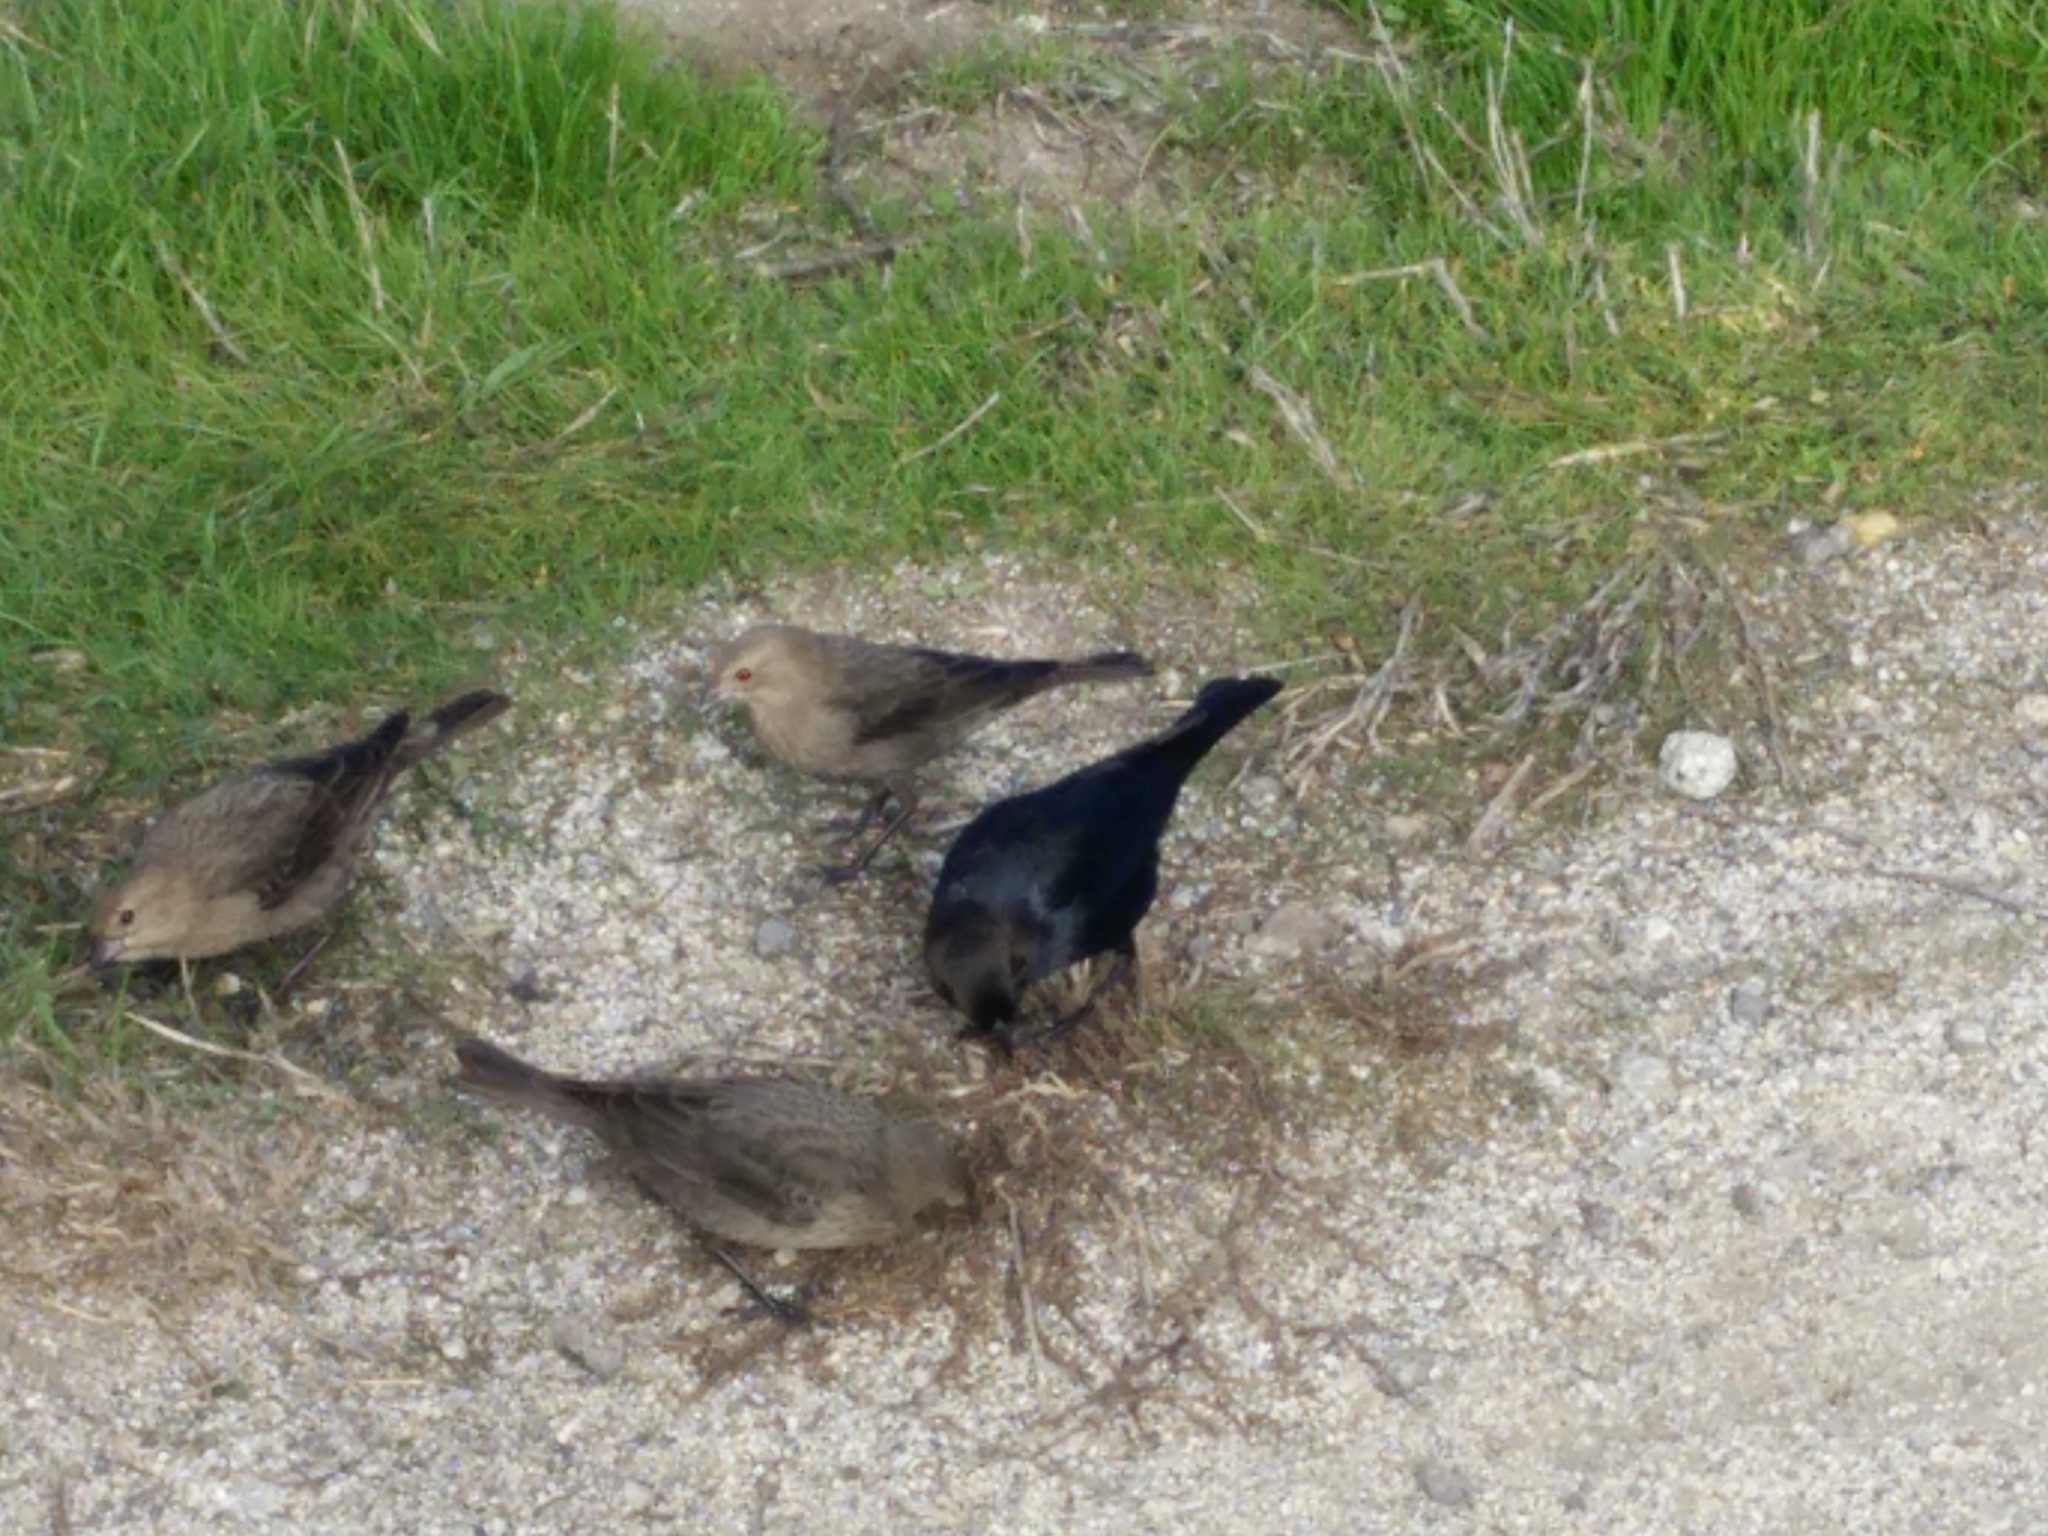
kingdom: Animalia
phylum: Chordata
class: Aves
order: Passeriformes
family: Icteridae
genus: Molothrus
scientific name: Molothrus ater
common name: Brown-headed cowbird
